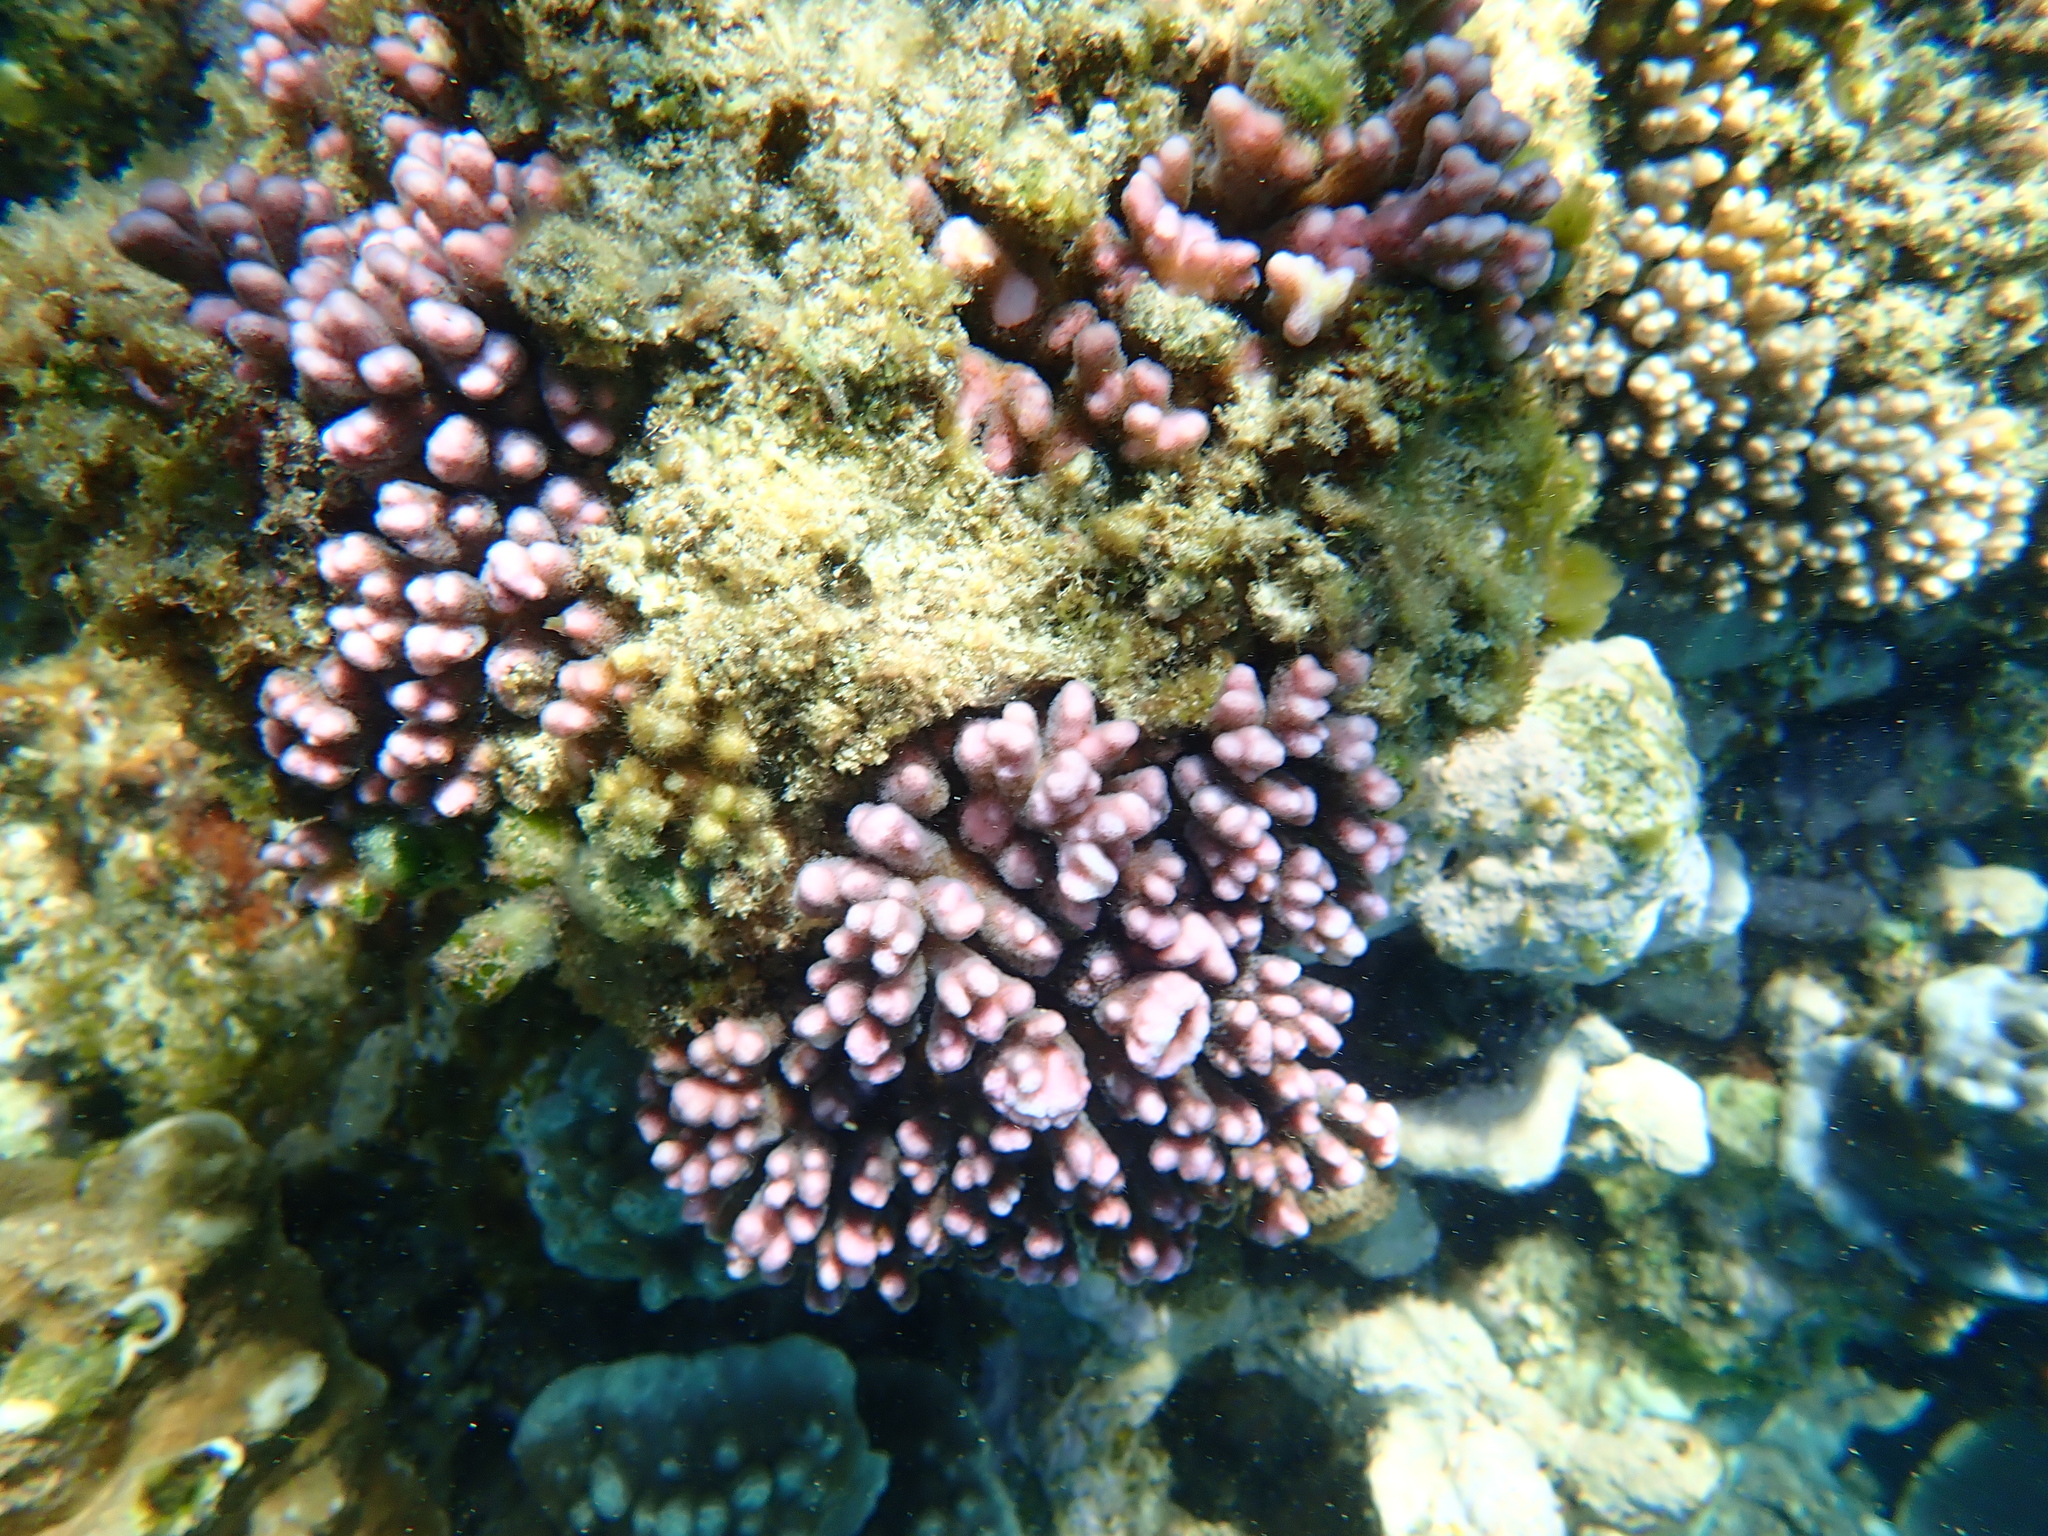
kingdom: Animalia
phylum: Cnidaria
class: Anthozoa
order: Scleractinia
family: Pocilloporidae
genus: Pocillopora
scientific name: Pocillopora damicornis
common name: Cauliflower coral
